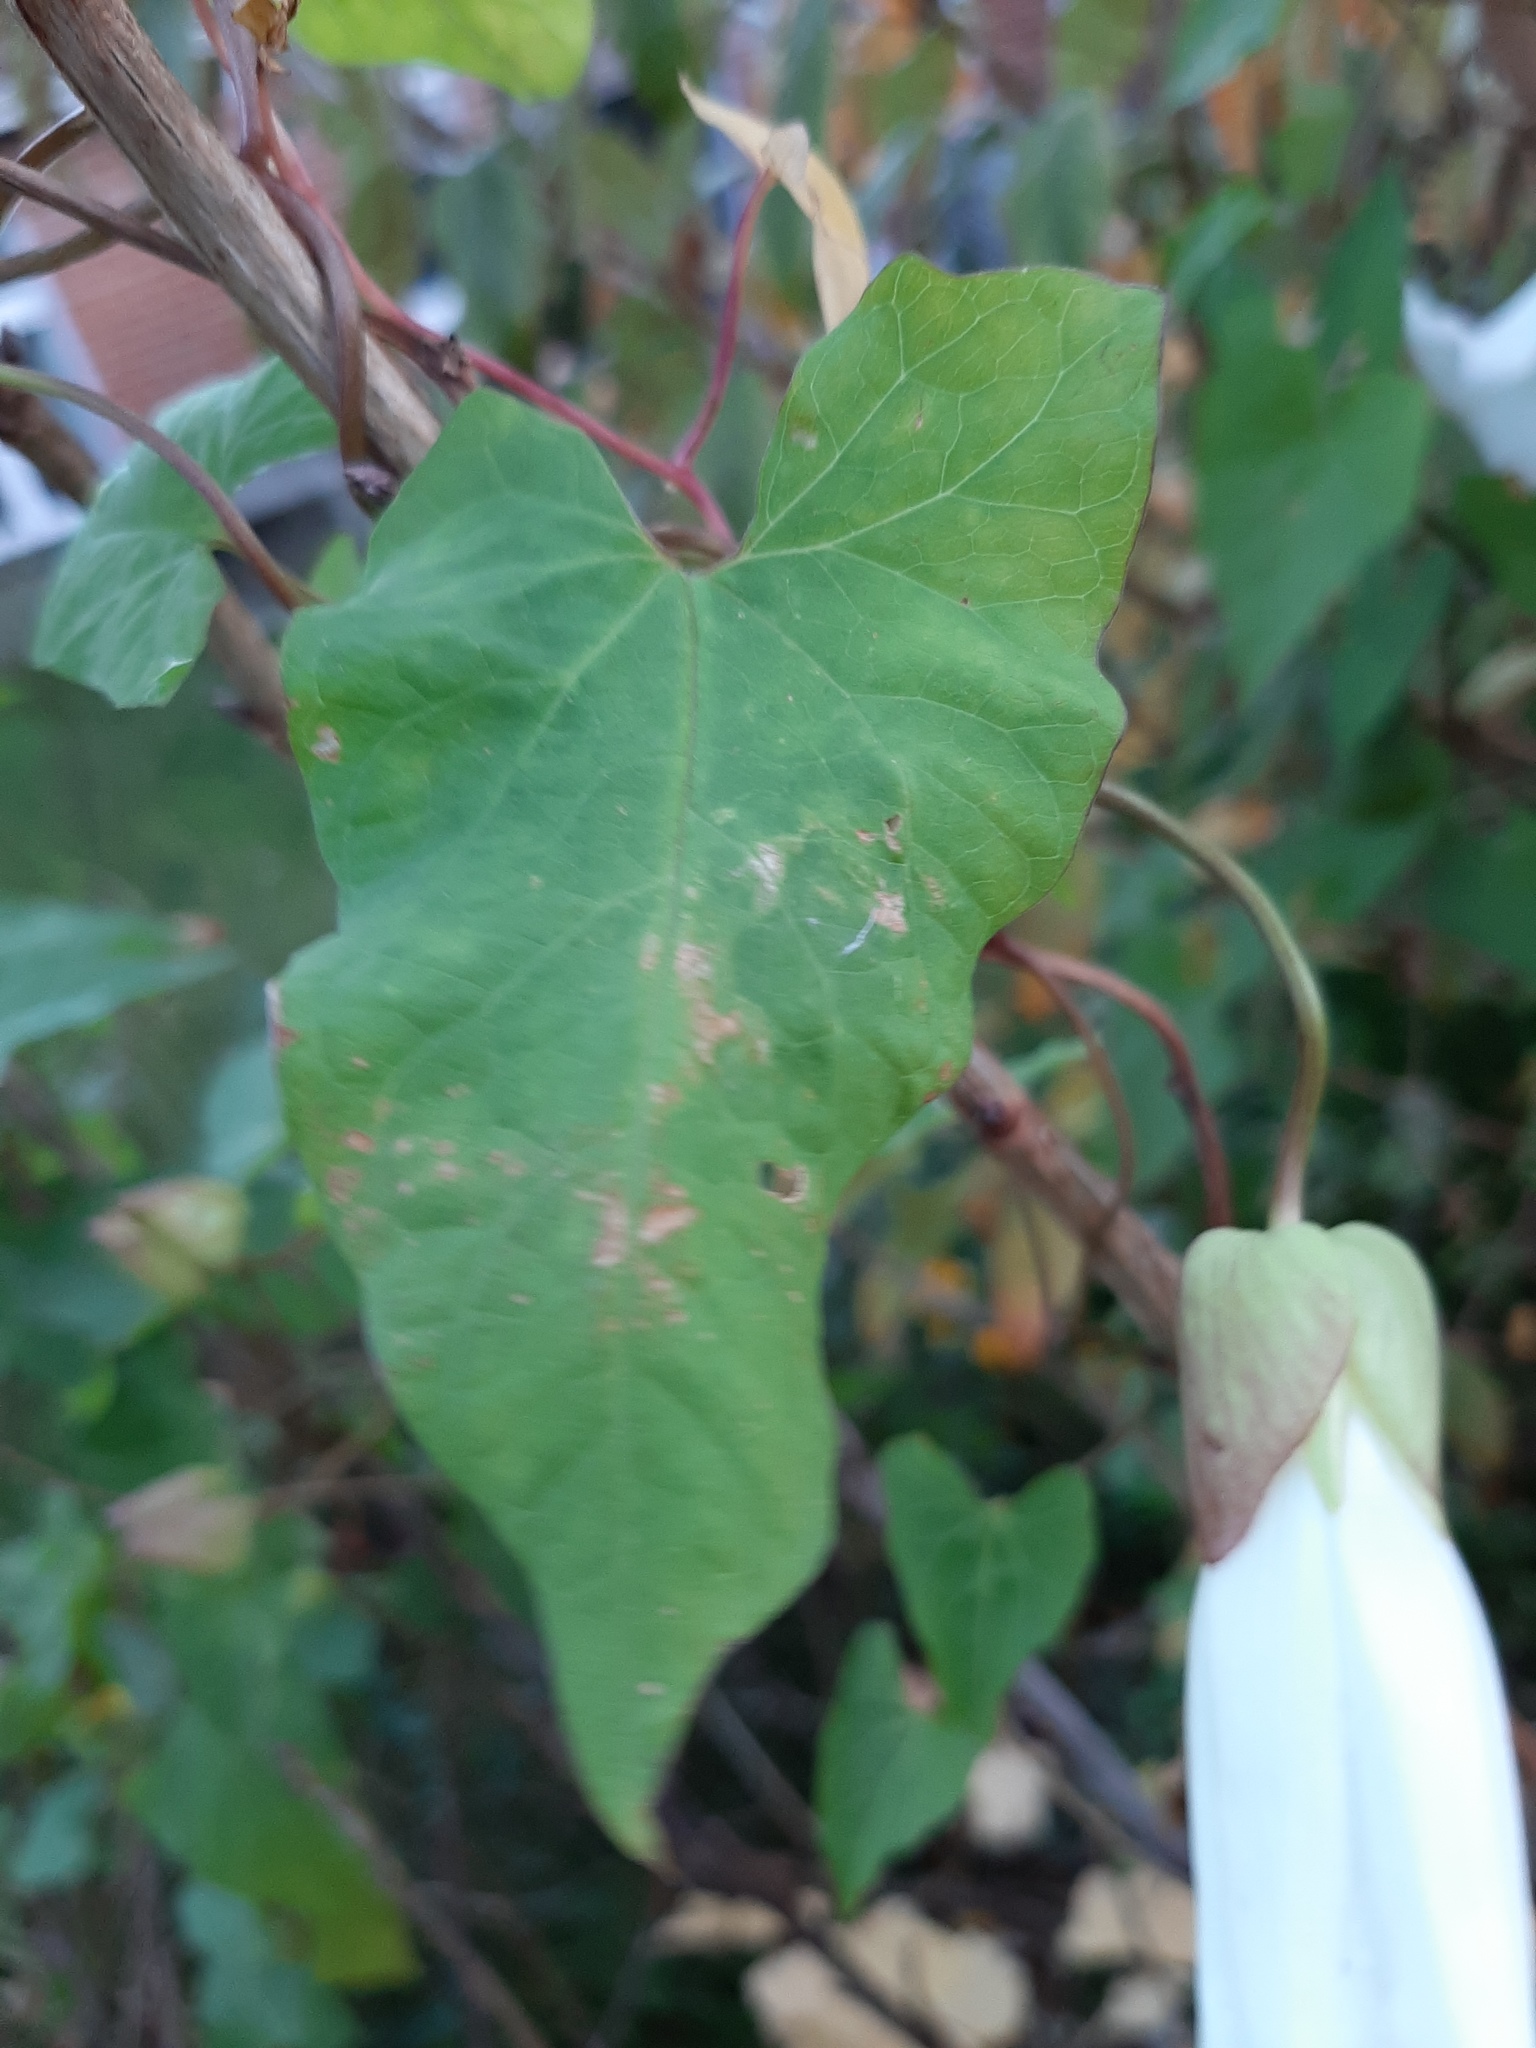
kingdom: Plantae
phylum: Tracheophyta
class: Magnoliopsida
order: Solanales
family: Convolvulaceae
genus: Calystegia
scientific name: Calystegia silvatica
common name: Large bindweed
